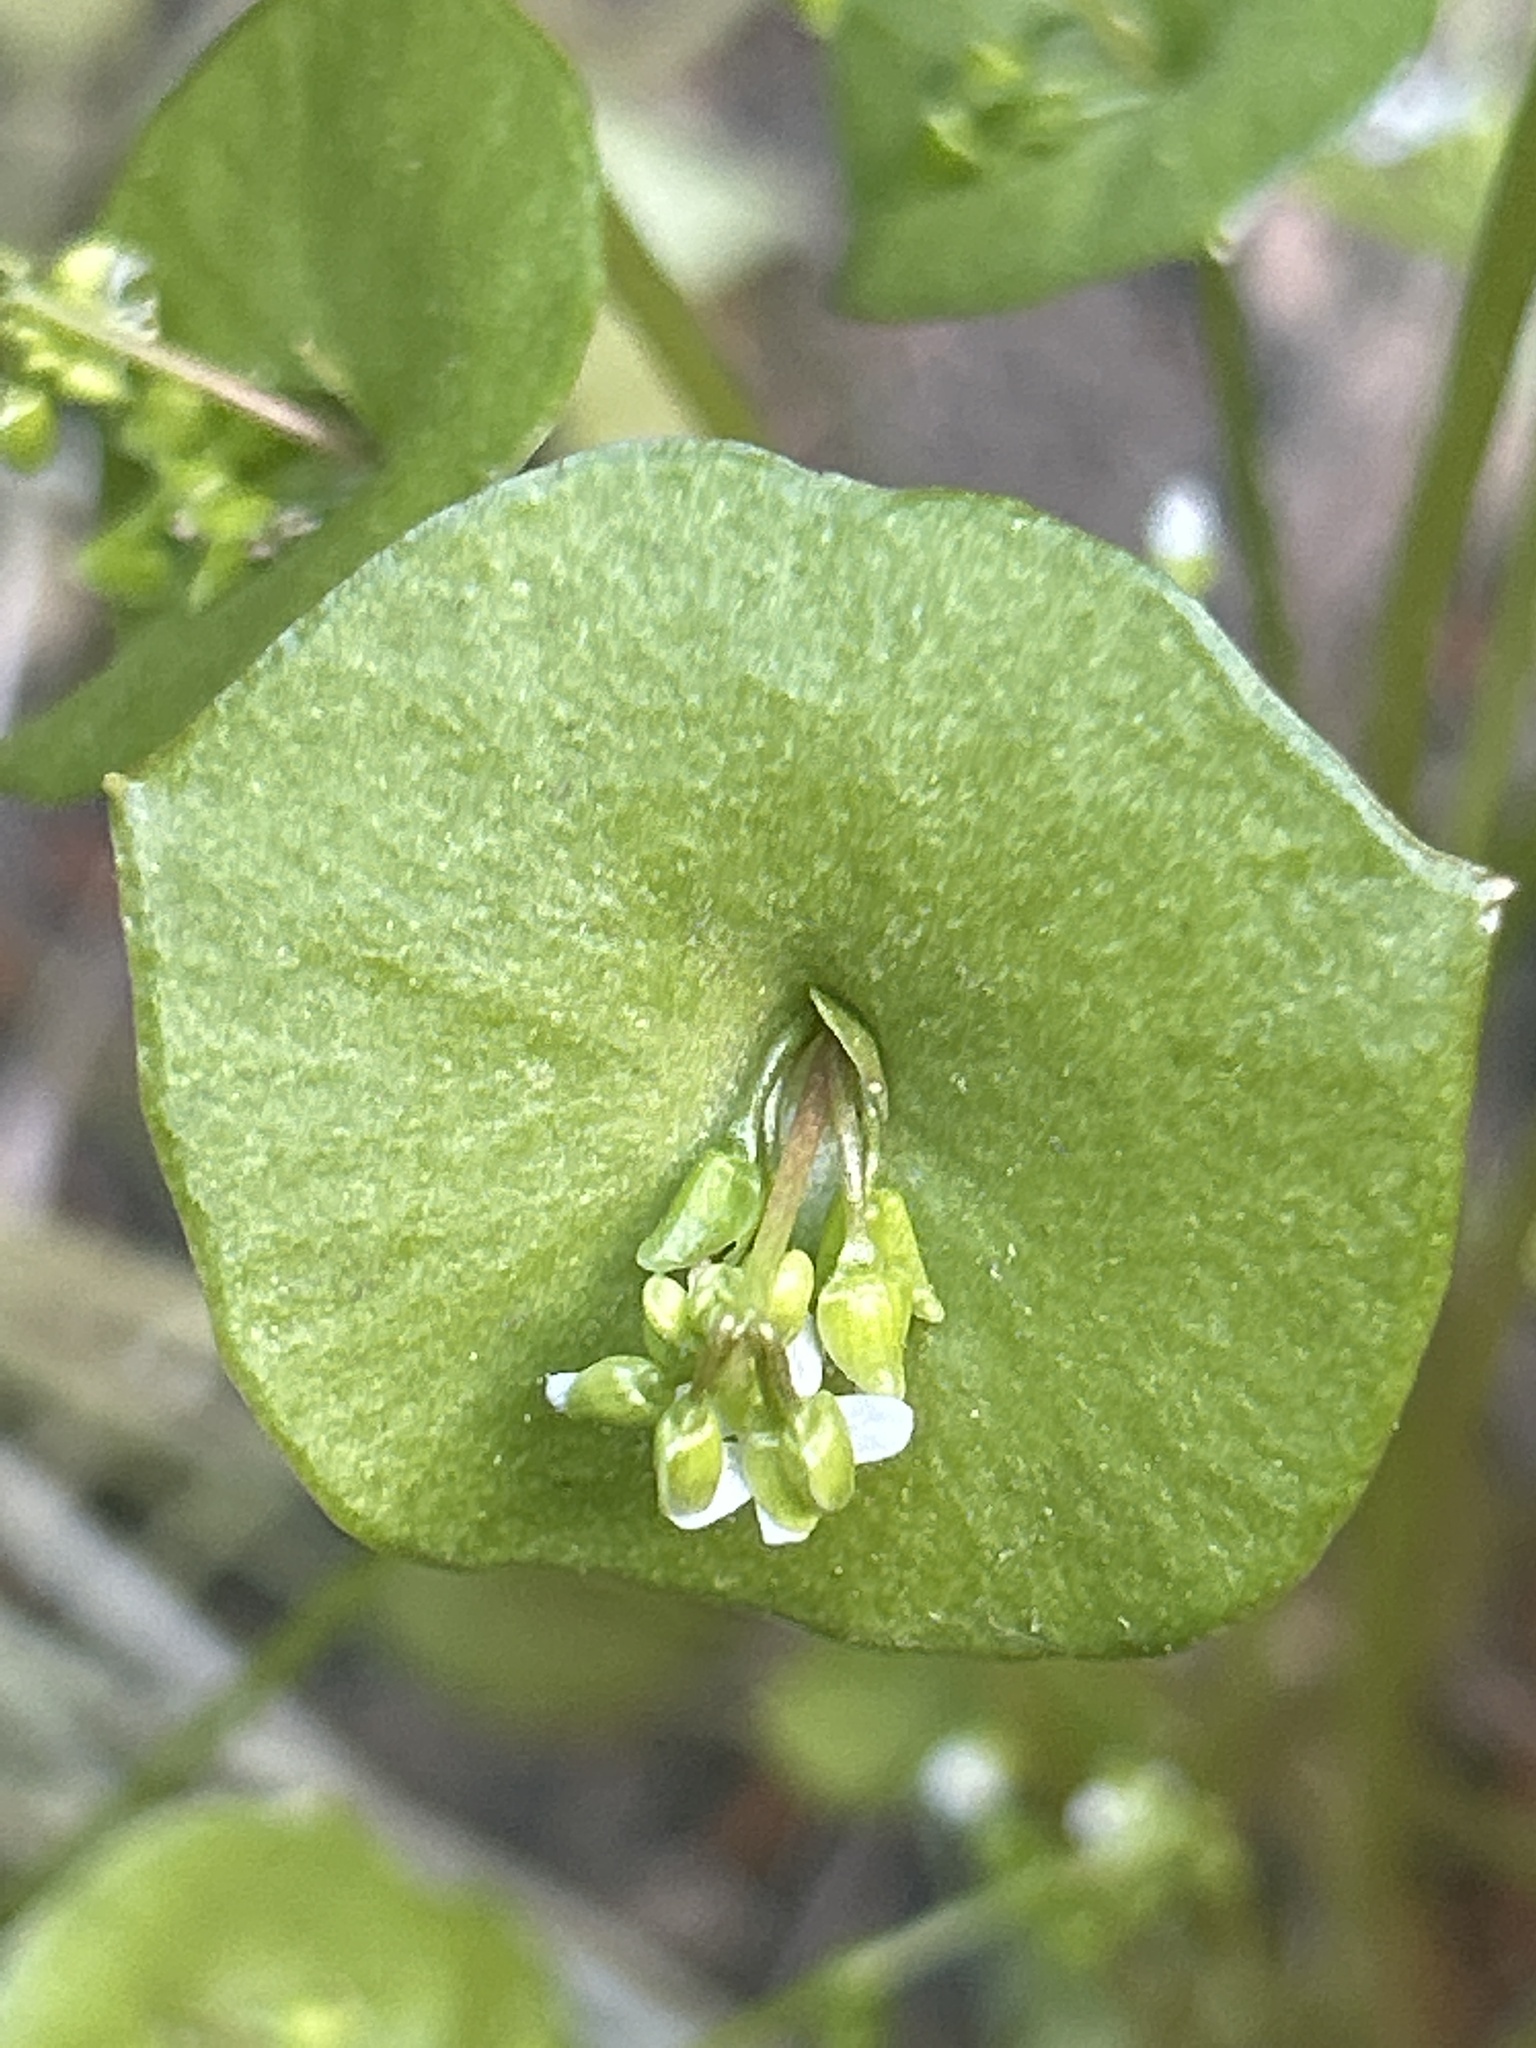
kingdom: Plantae
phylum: Tracheophyta
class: Magnoliopsida
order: Caryophyllales
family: Montiaceae
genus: Claytonia
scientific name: Claytonia perfoliata
